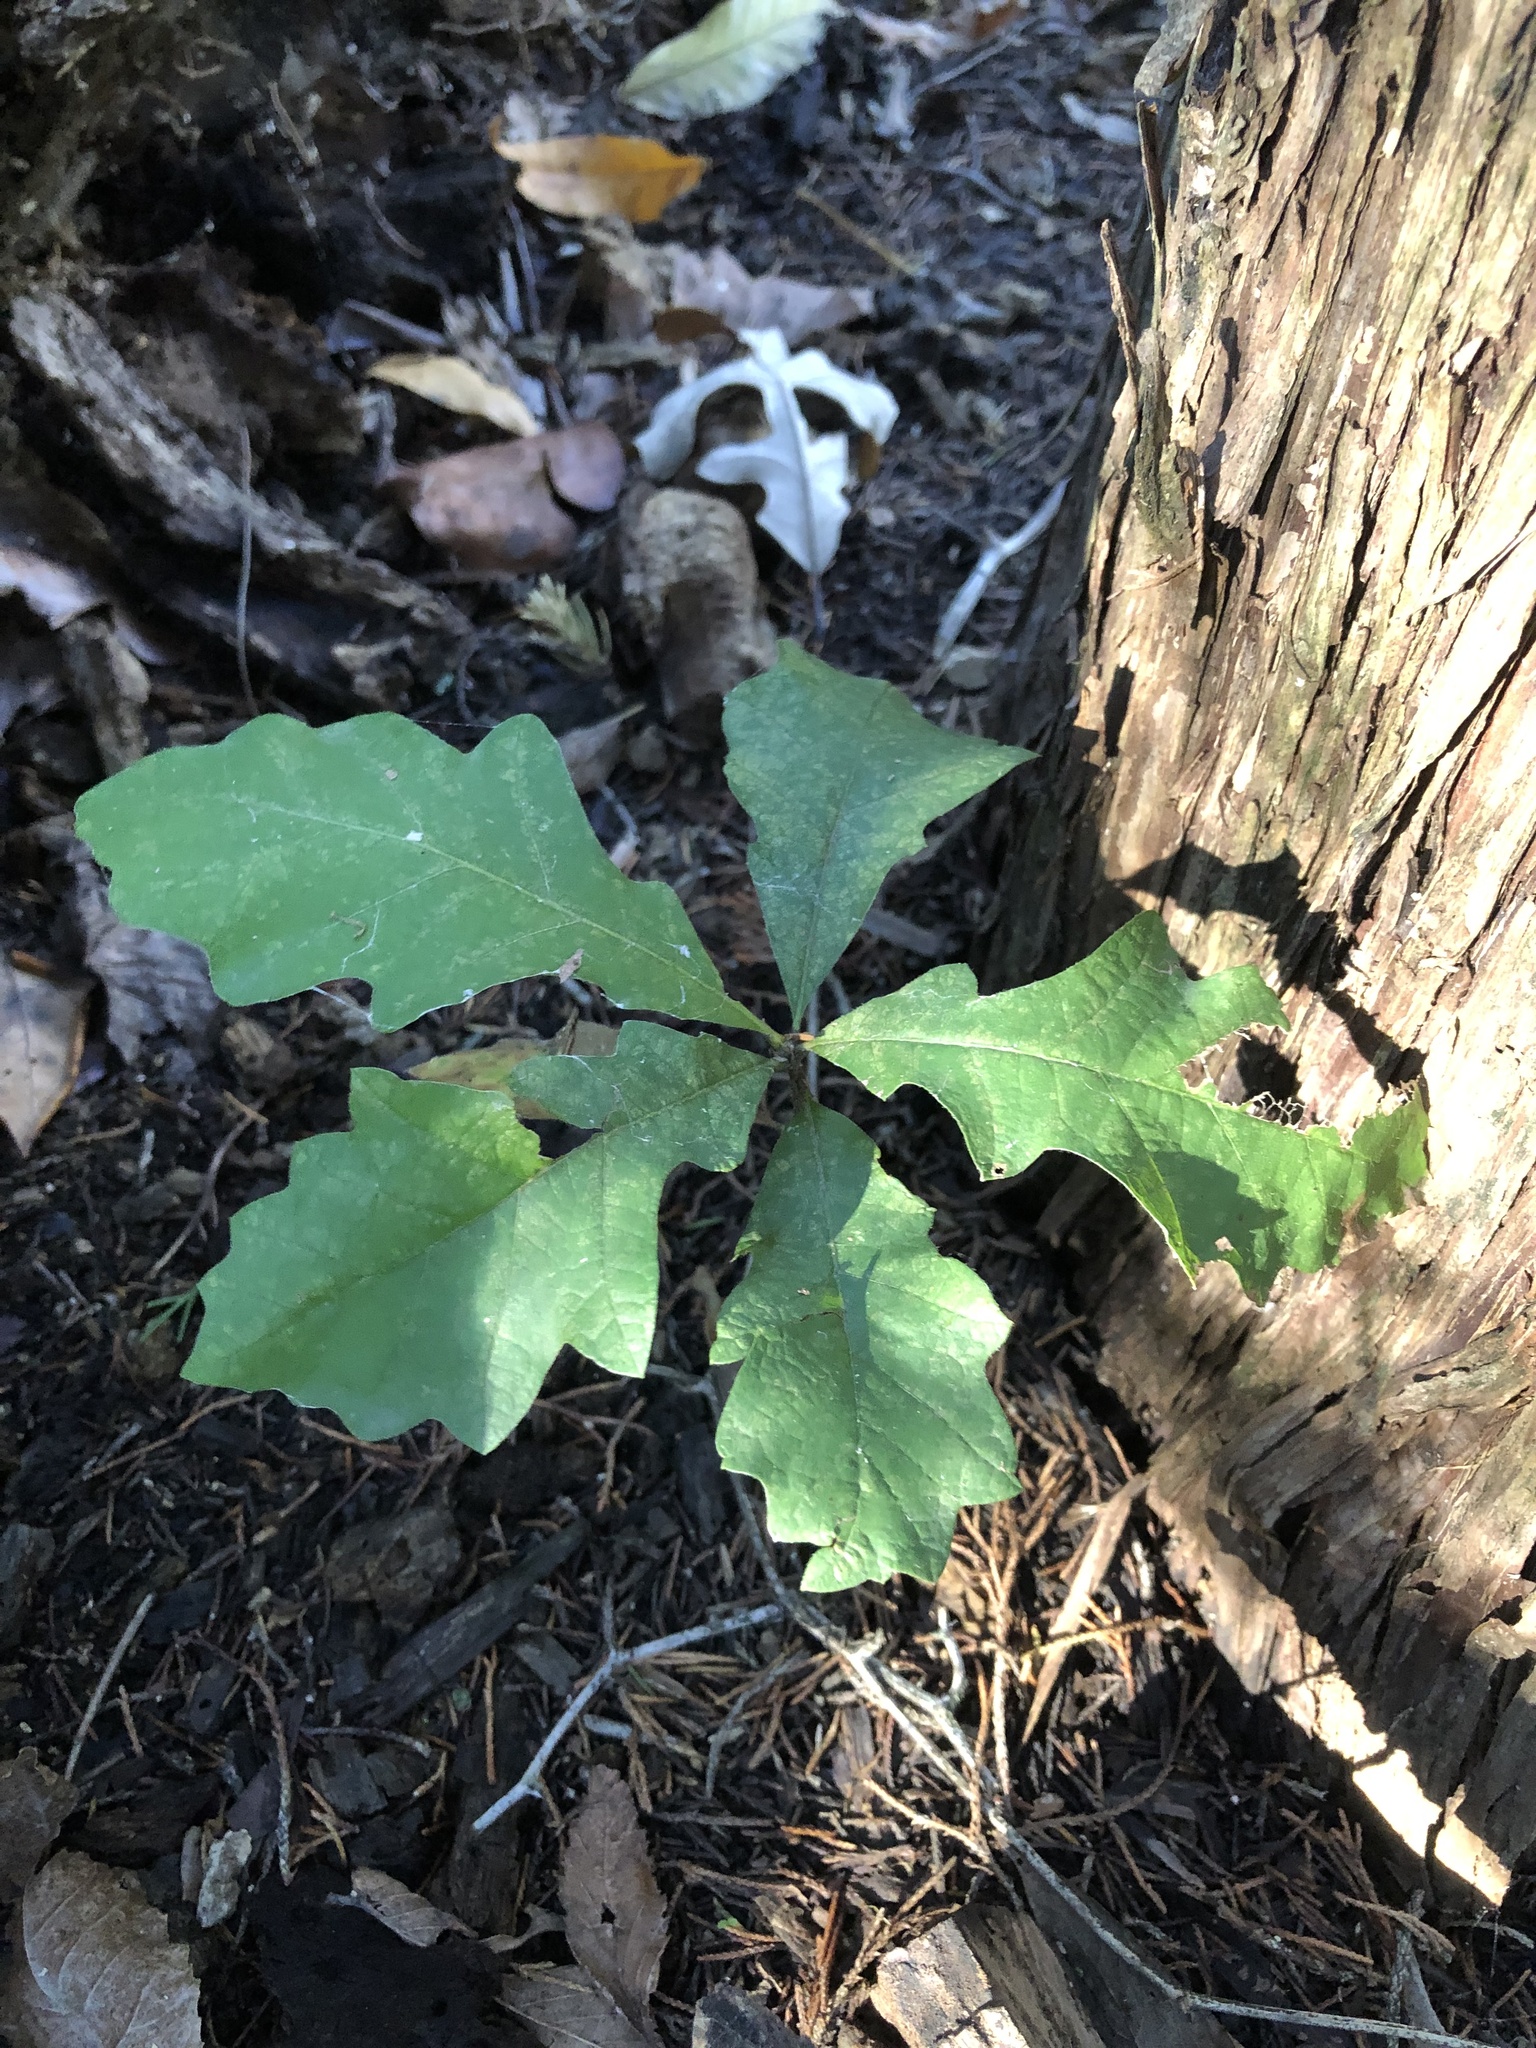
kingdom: Plantae
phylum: Tracheophyta
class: Magnoliopsida
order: Fagales
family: Fagaceae
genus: Quercus
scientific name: Quercus muehlenbergii
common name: Chinkapin oak
